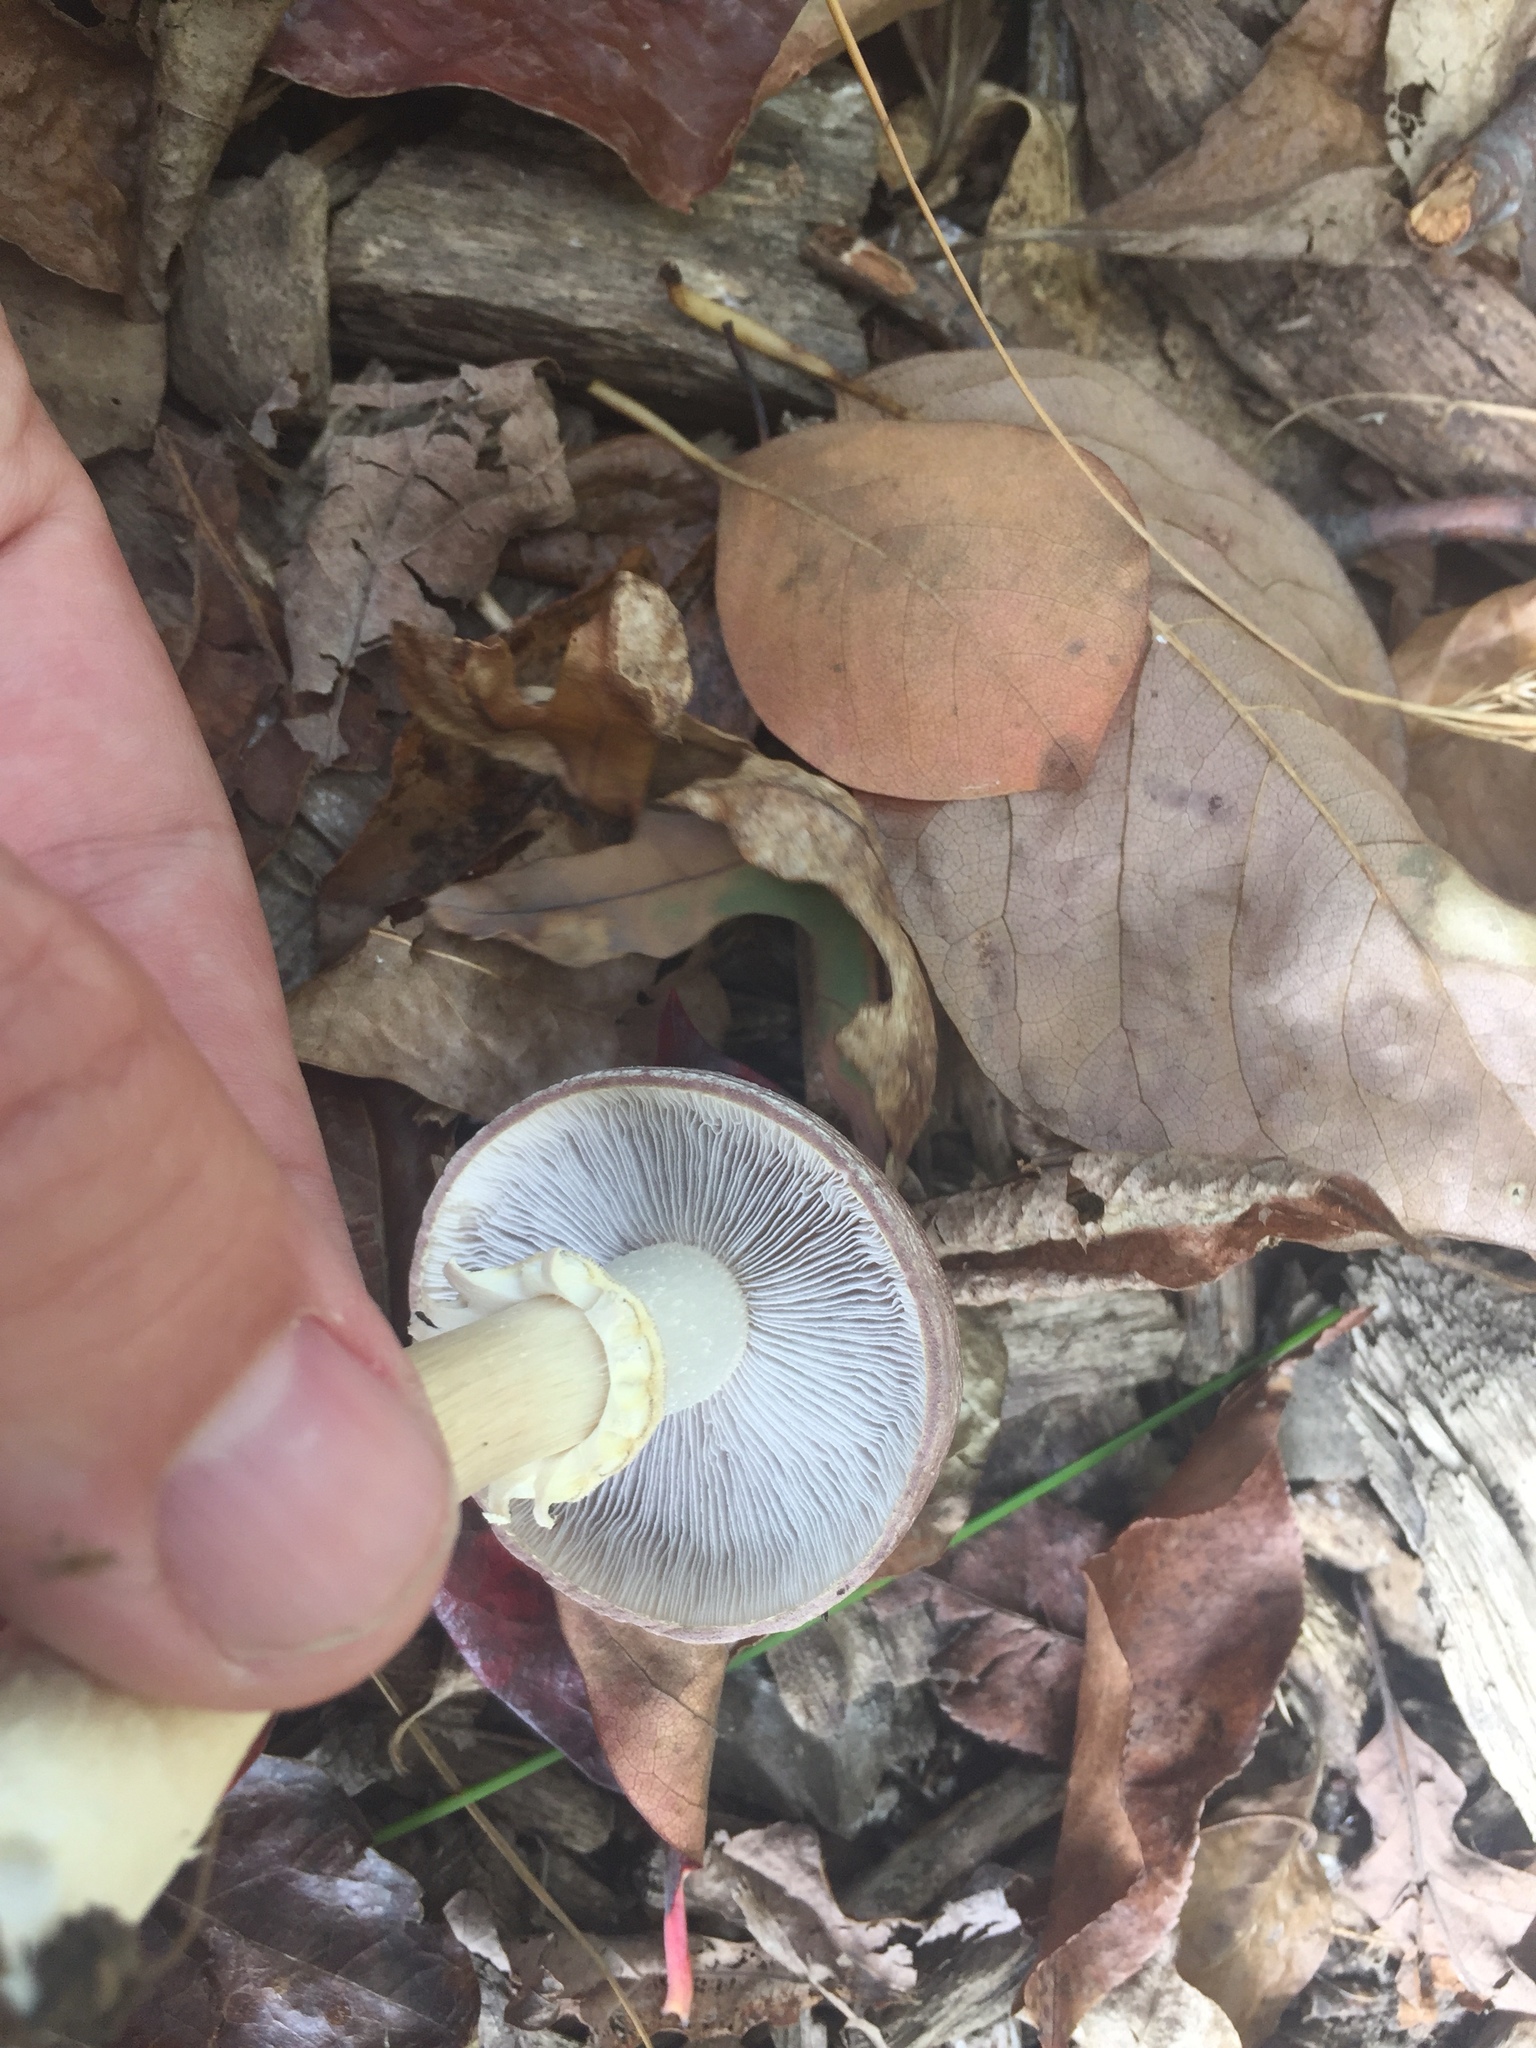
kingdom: Fungi
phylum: Basidiomycota
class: Agaricomycetes
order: Agaricales
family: Strophariaceae
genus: Stropharia
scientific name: Stropharia rugosoannulata
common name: Wine roundhead
